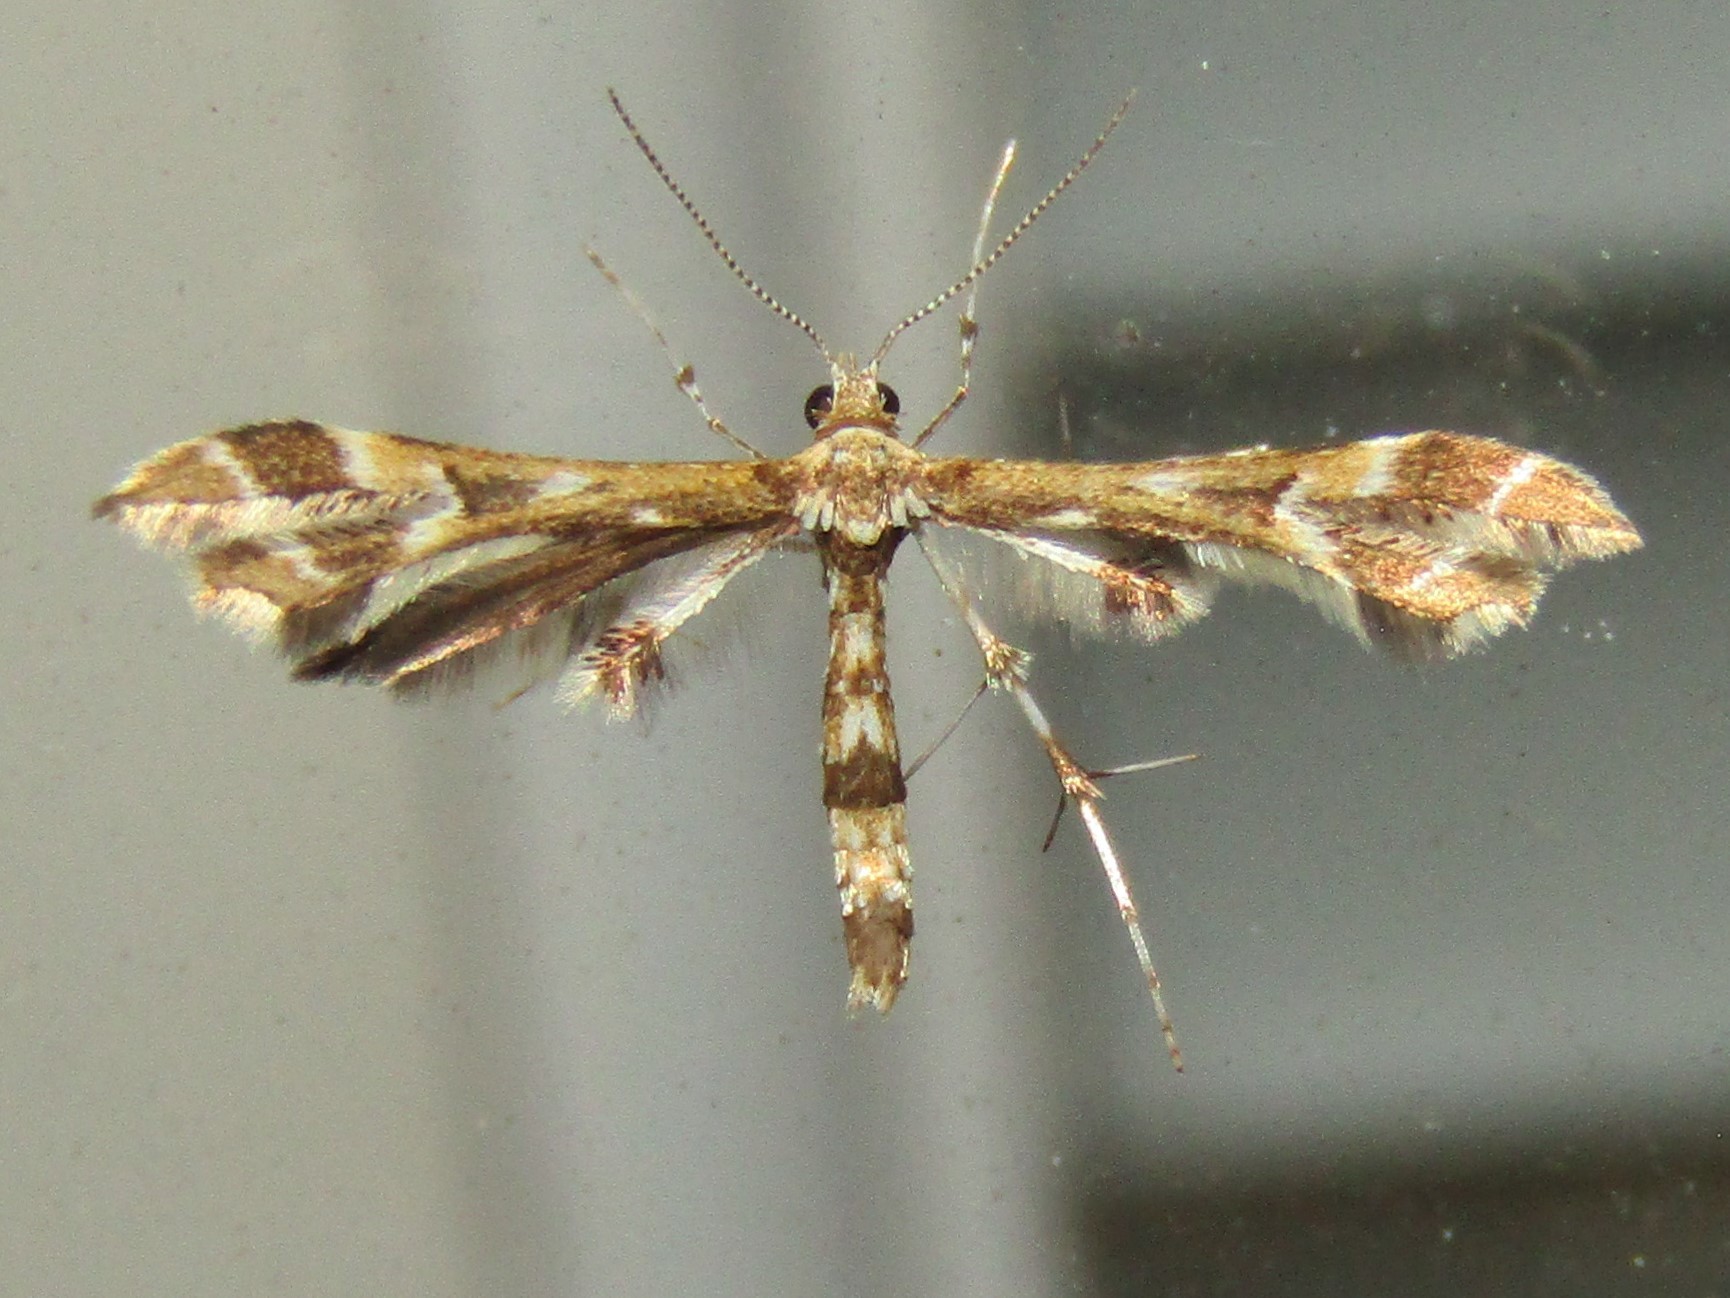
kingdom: Animalia
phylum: Arthropoda
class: Insecta
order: Lepidoptera
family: Pterophoridae
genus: Sphenarches
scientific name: Sphenarches ontario
